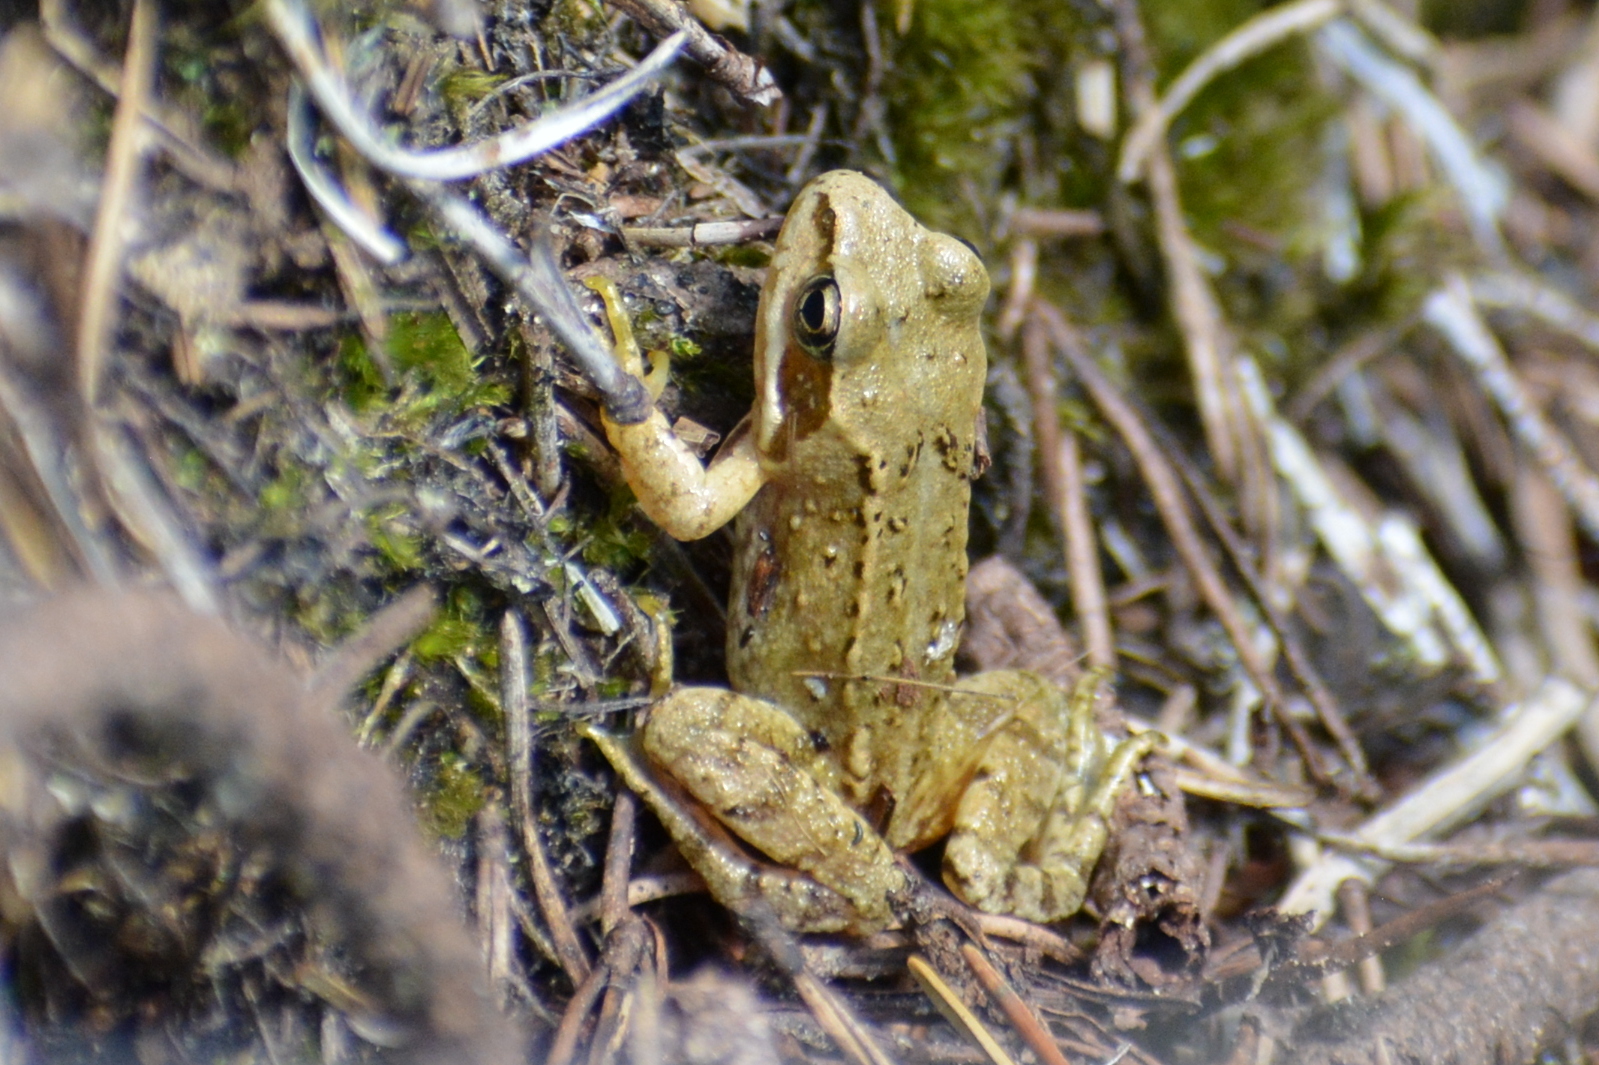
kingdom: Animalia
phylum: Chordata
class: Amphibia
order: Anura
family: Ranidae
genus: Rana
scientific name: Rana temporaria
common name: Common frog
